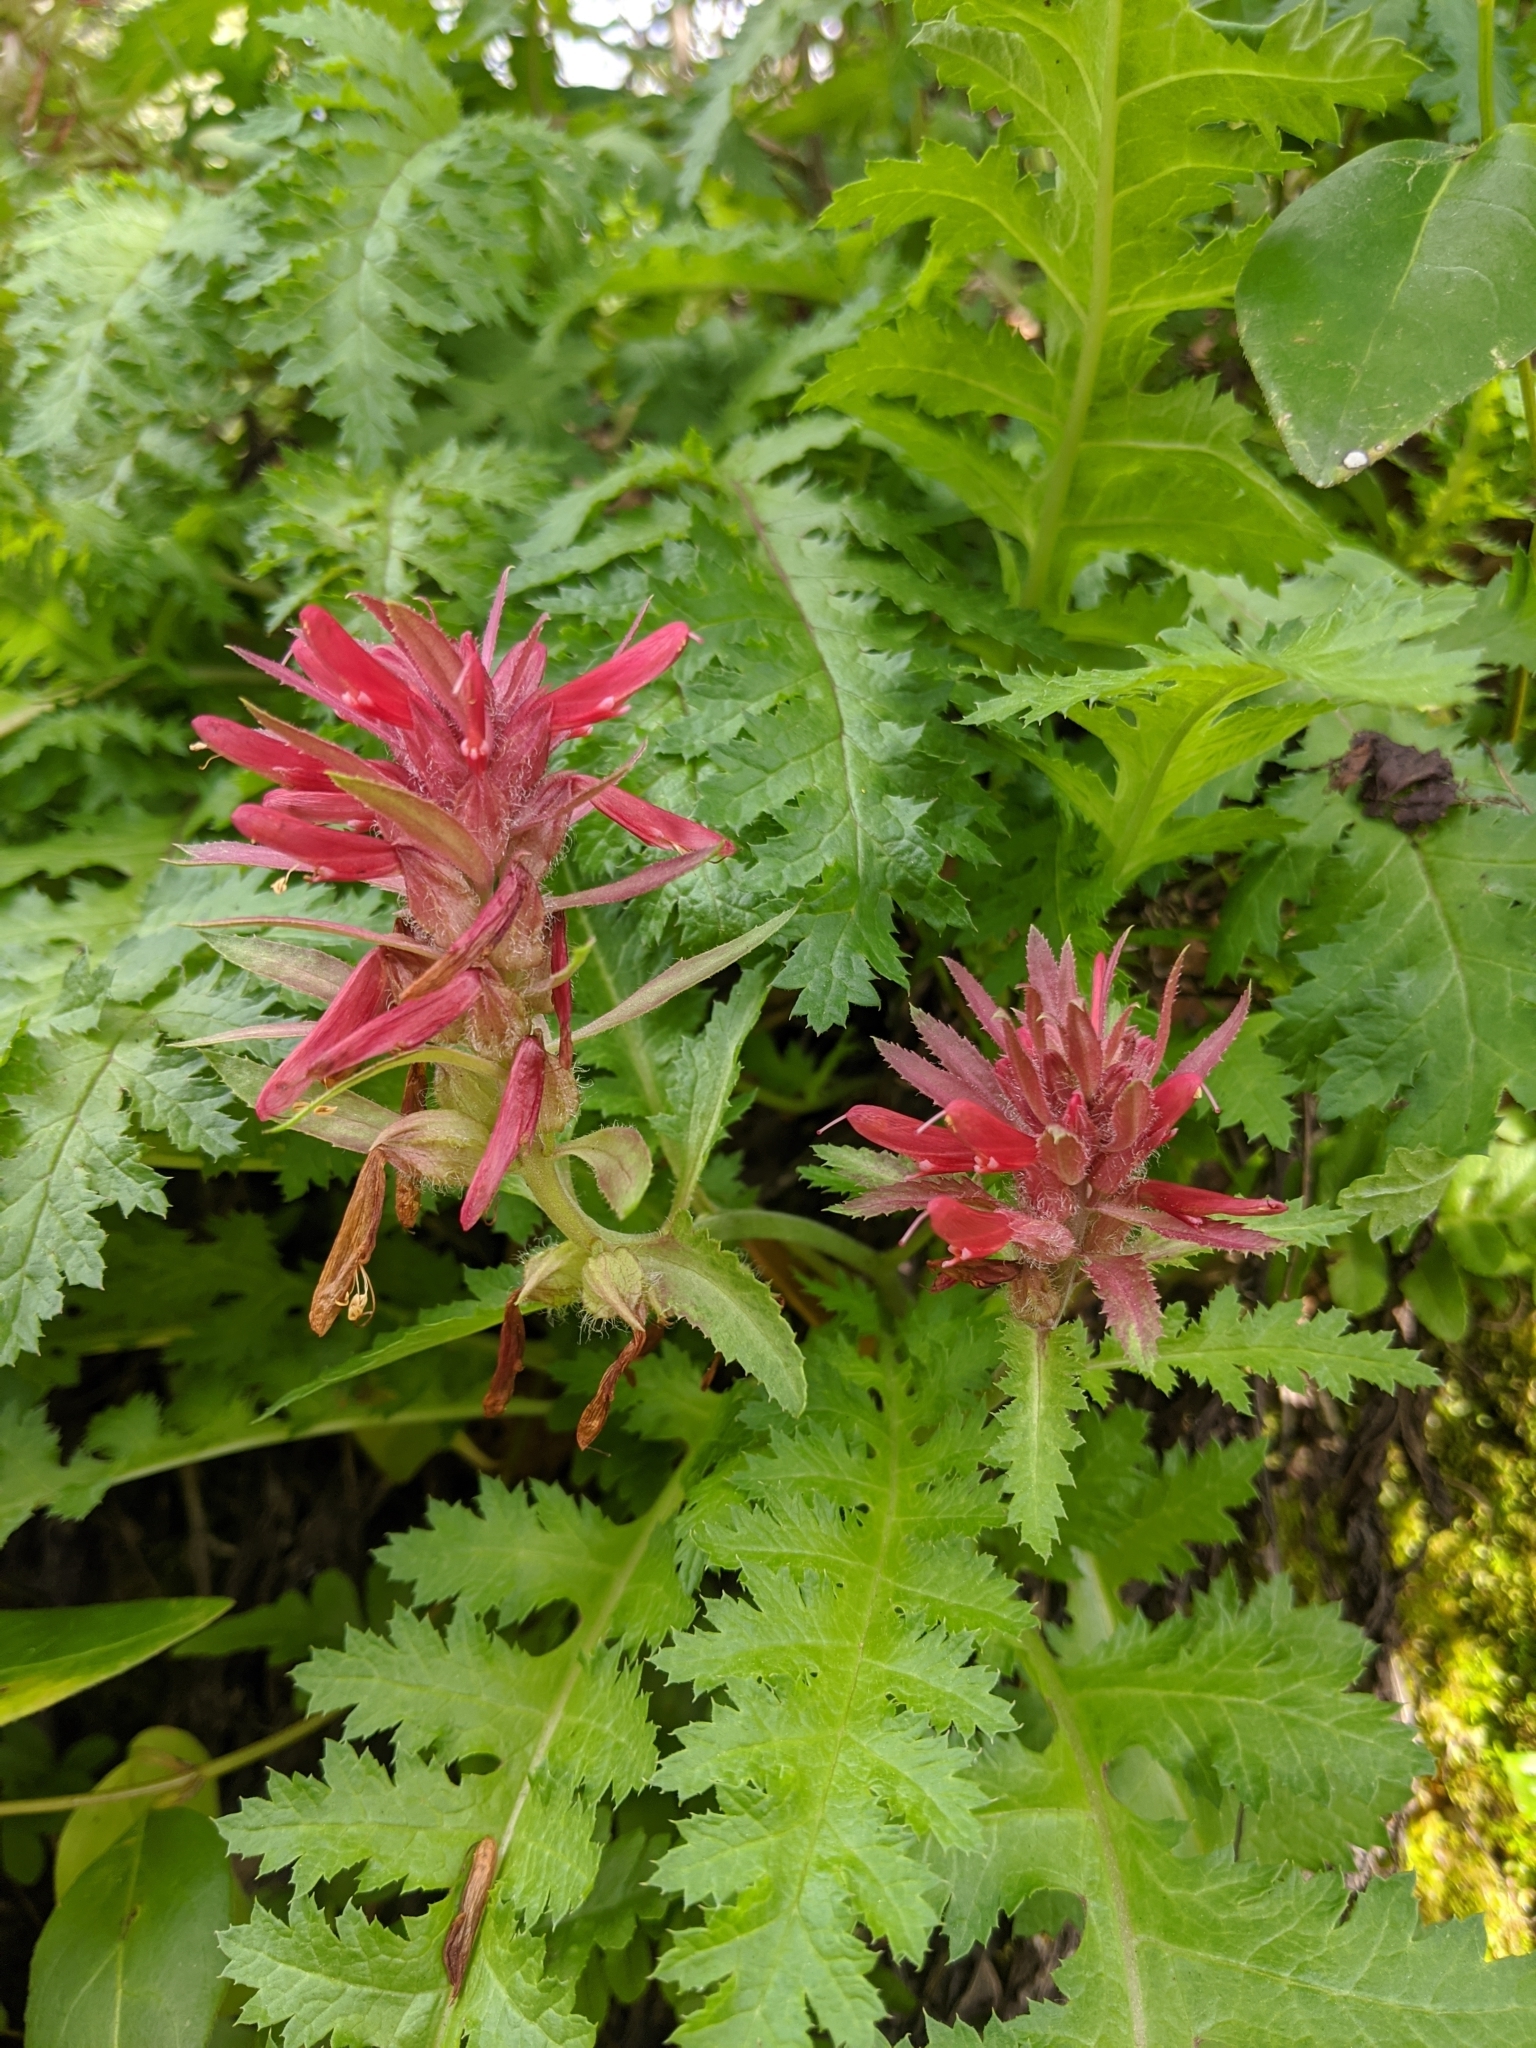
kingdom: Plantae
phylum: Tracheophyta
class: Magnoliopsida
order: Lamiales
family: Orobanchaceae
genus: Pedicularis
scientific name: Pedicularis densiflora
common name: Indian warrior
